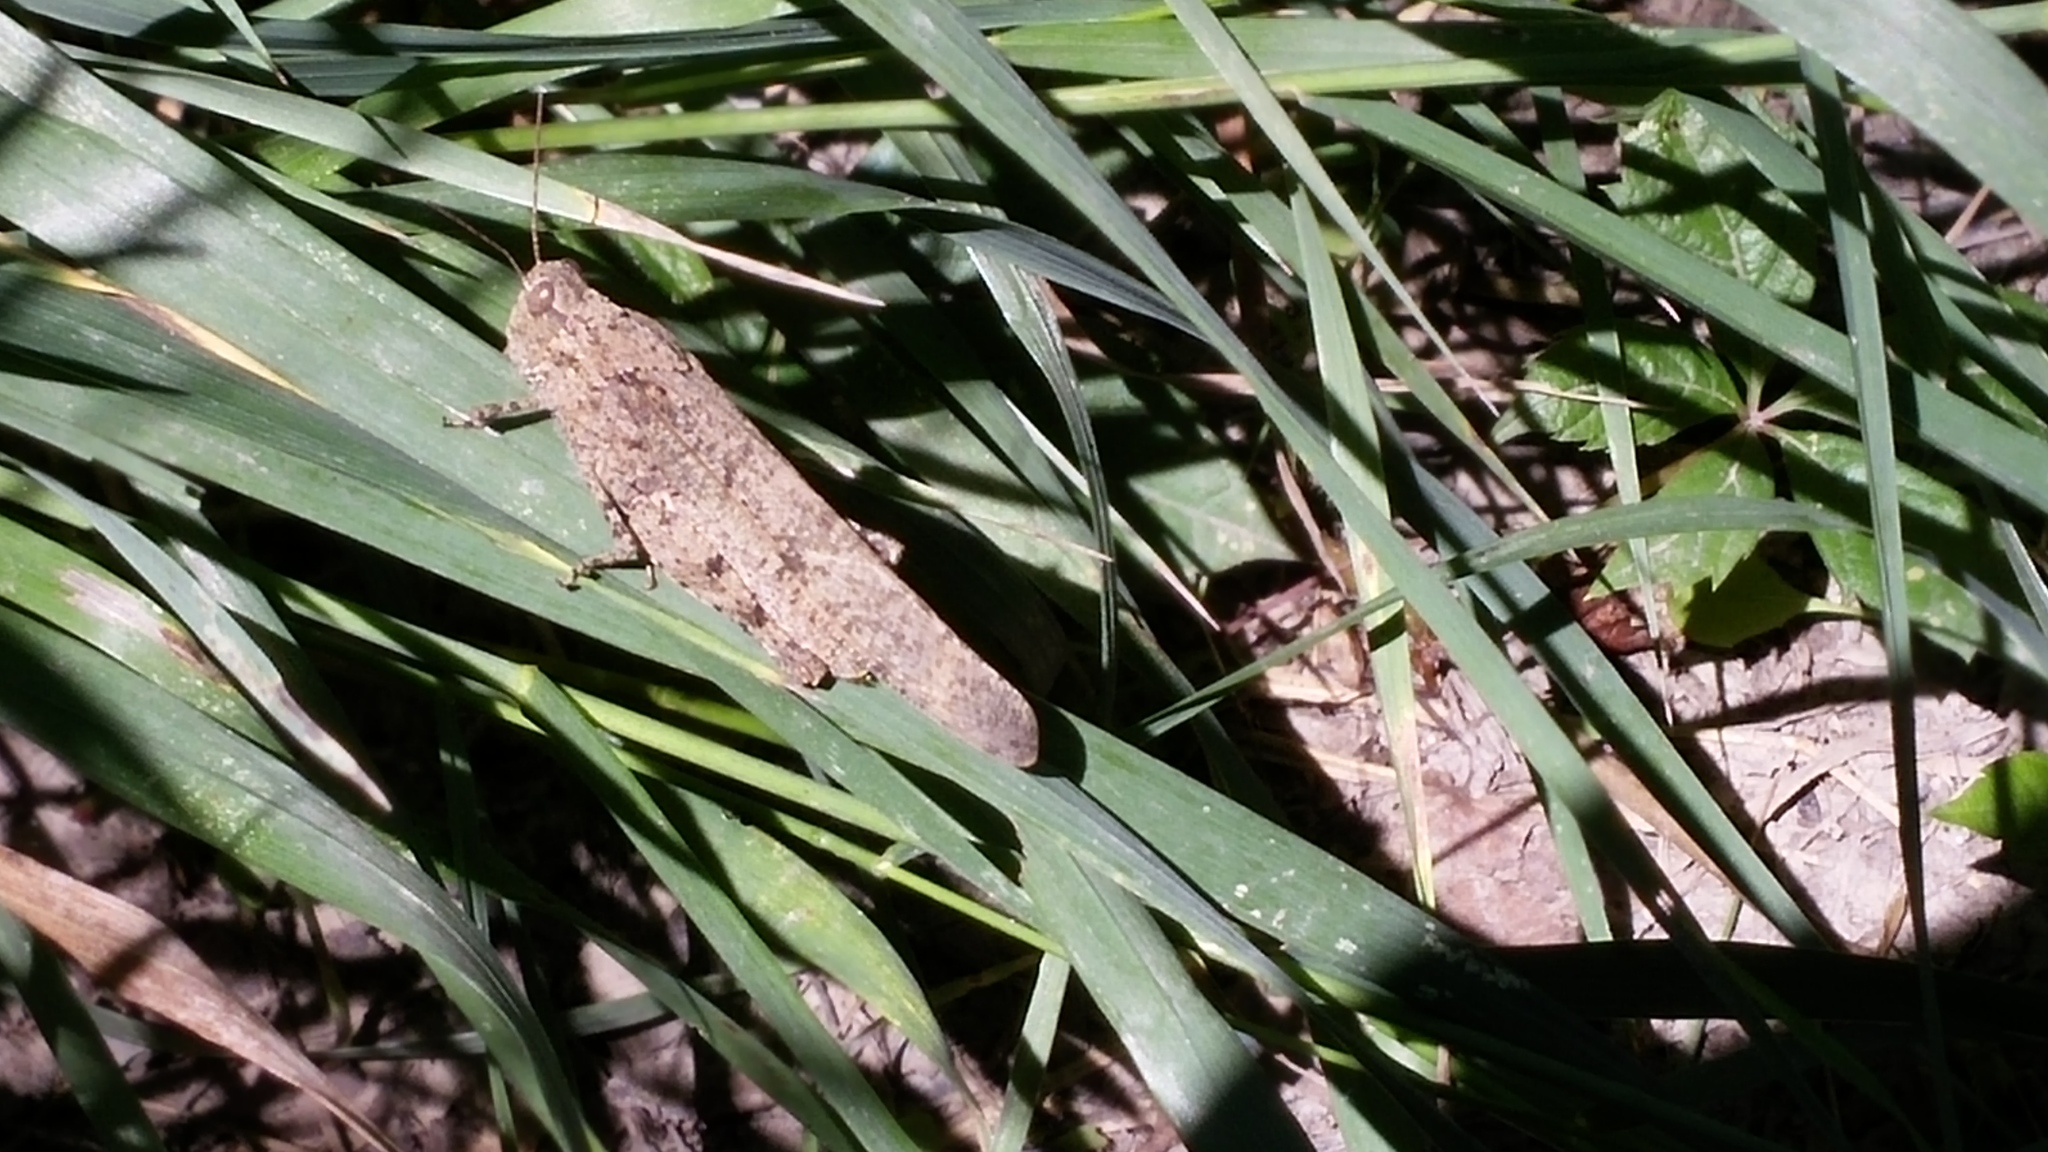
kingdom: Animalia
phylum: Arthropoda
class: Insecta
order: Orthoptera
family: Acrididae
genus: Dissosteira
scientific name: Dissosteira carolina
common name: Carolina grasshopper
